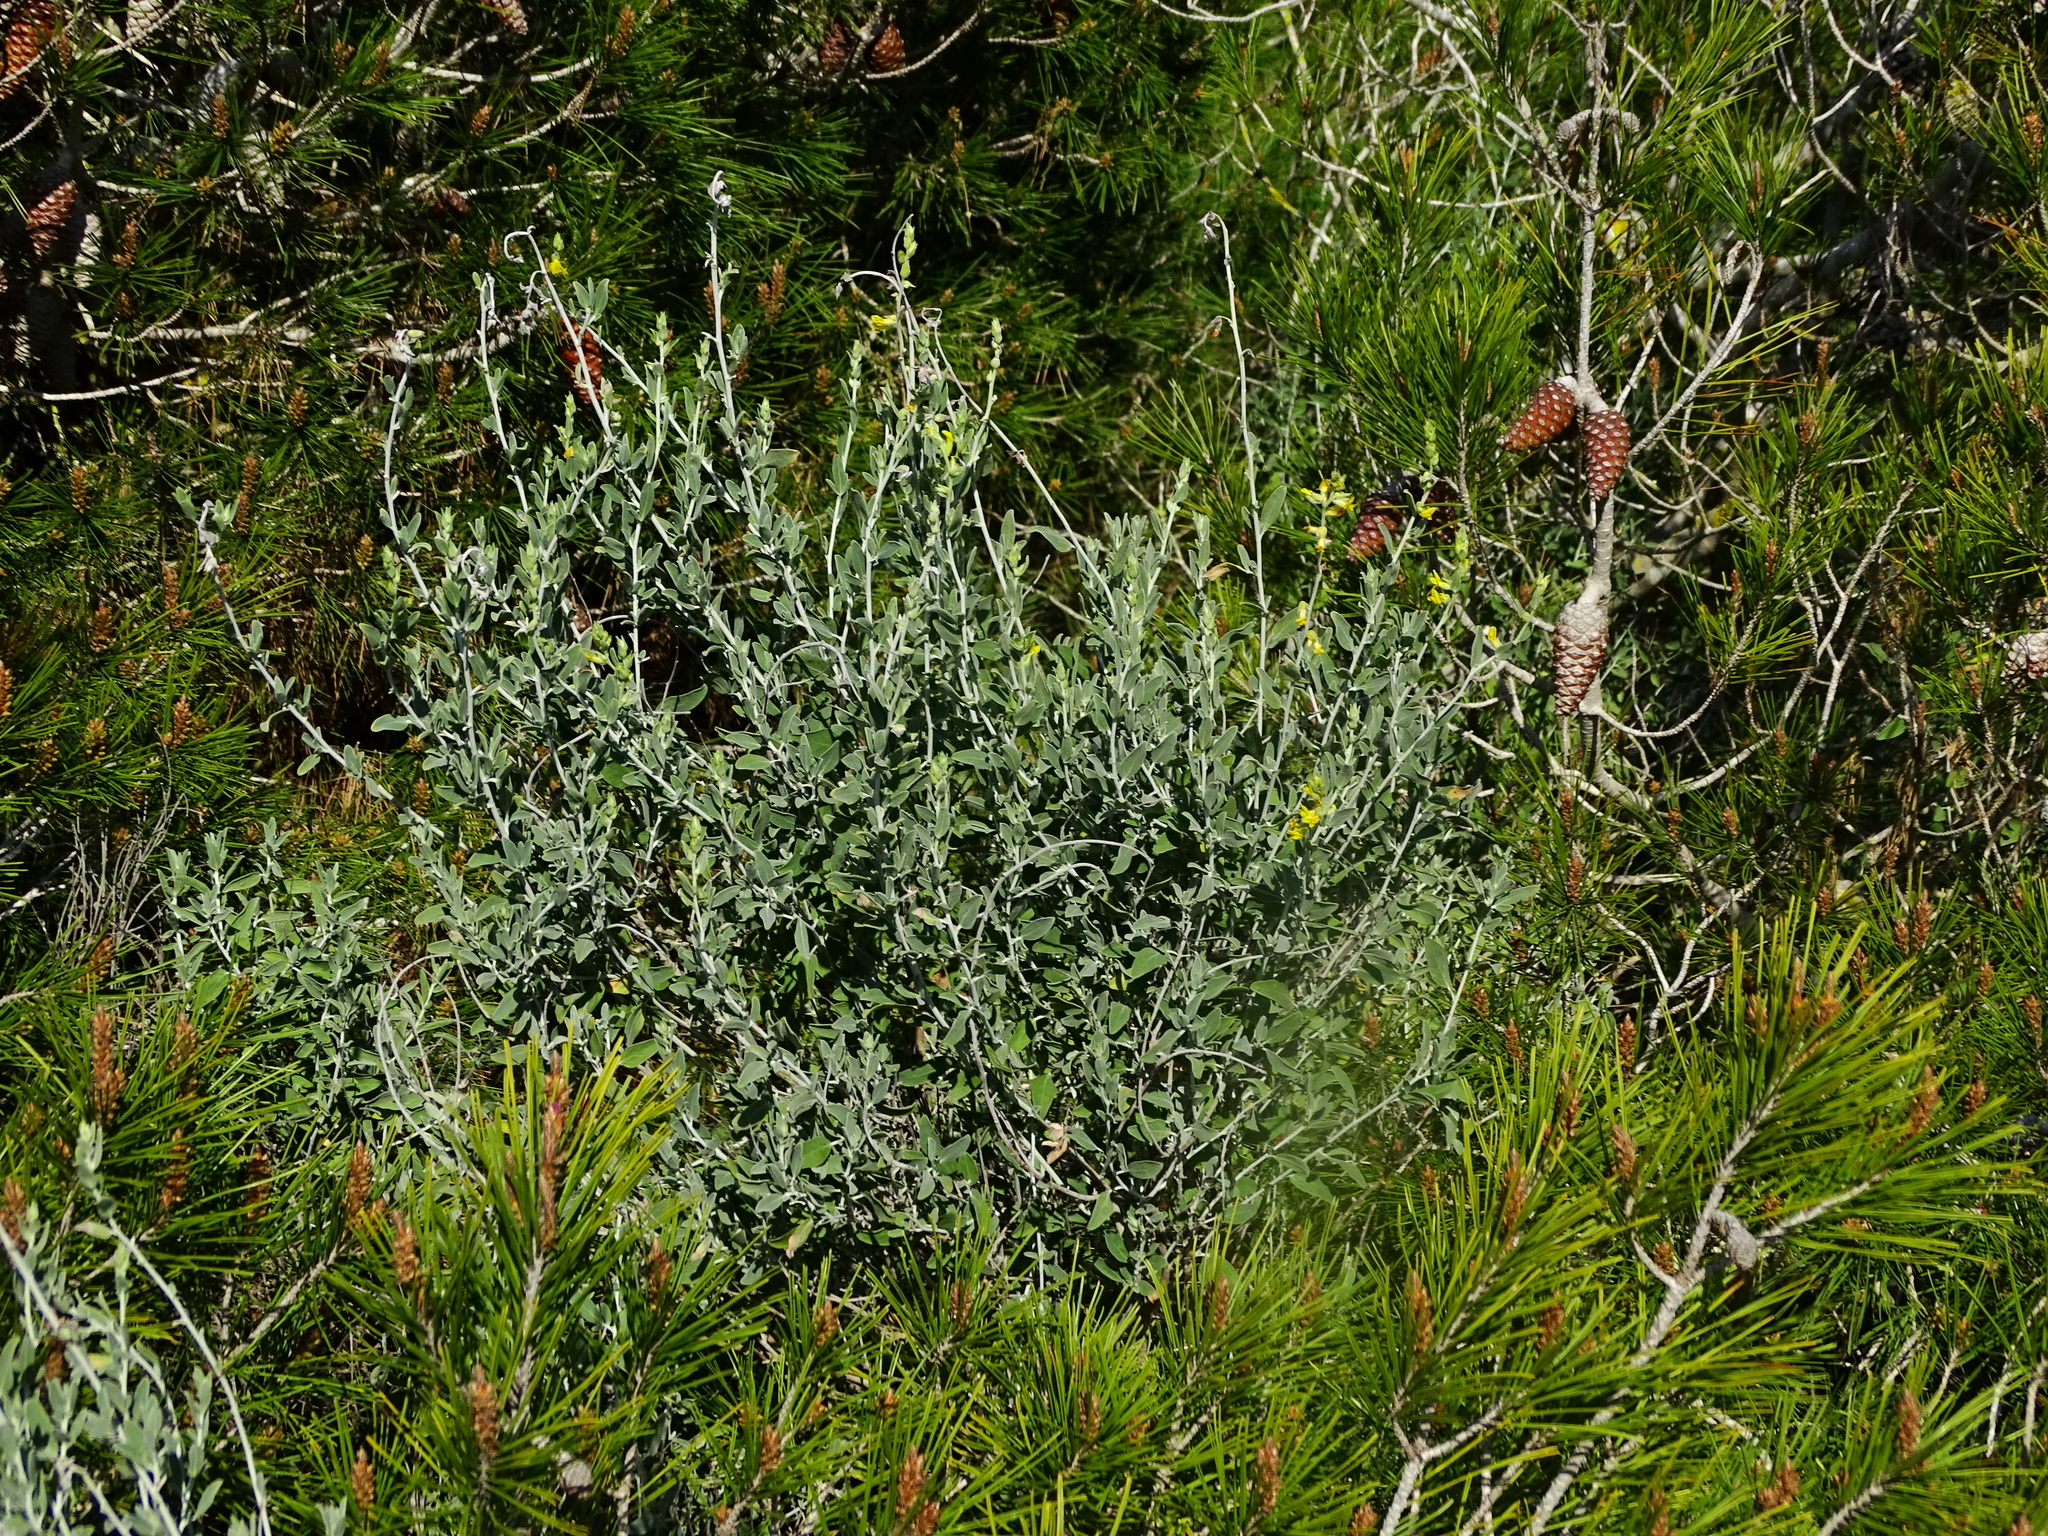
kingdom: Plantae
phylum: Tracheophyta
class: Magnoliopsida
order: Fabales
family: Fabaceae
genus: Anthyllis
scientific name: Anthyllis cytisoides
